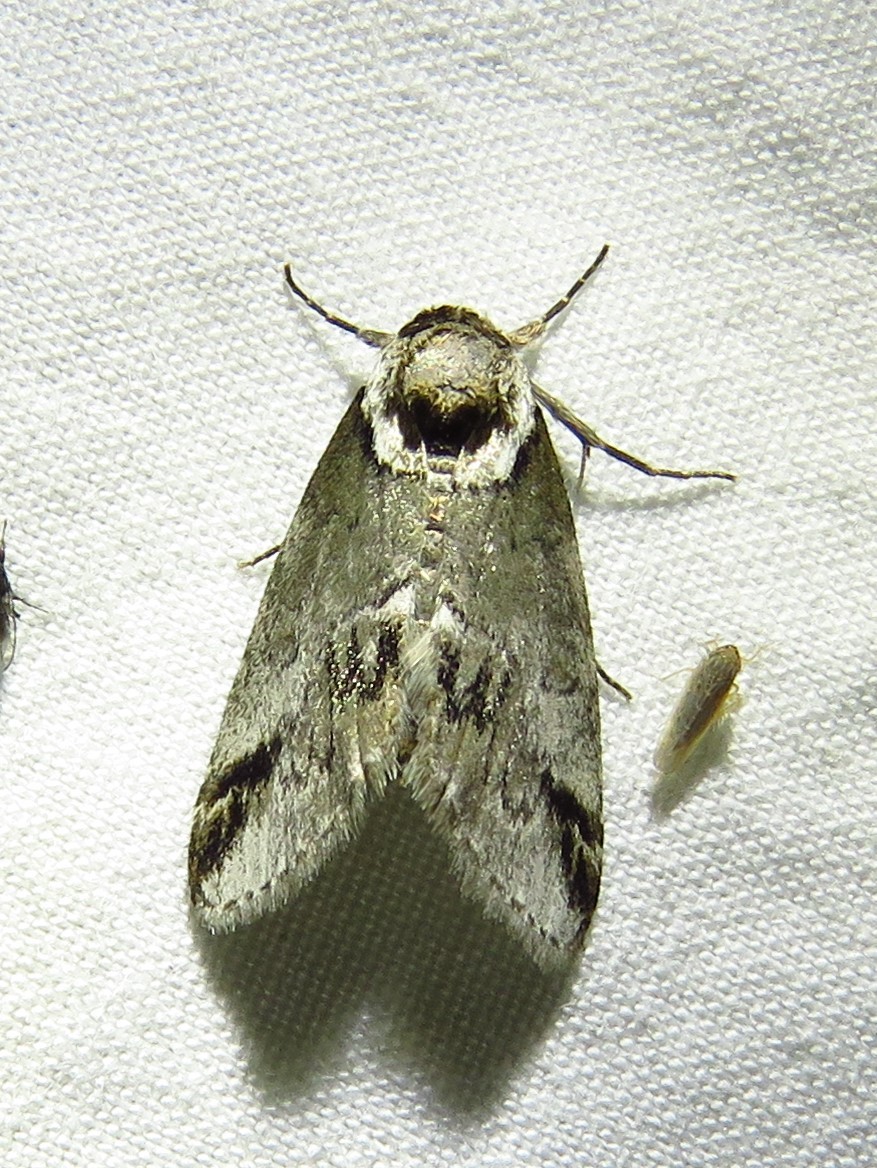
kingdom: Animalia
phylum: Arthropoda
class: Insecta
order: Lepidoptera
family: Nolidae
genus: Baileya
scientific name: Baileya australis
